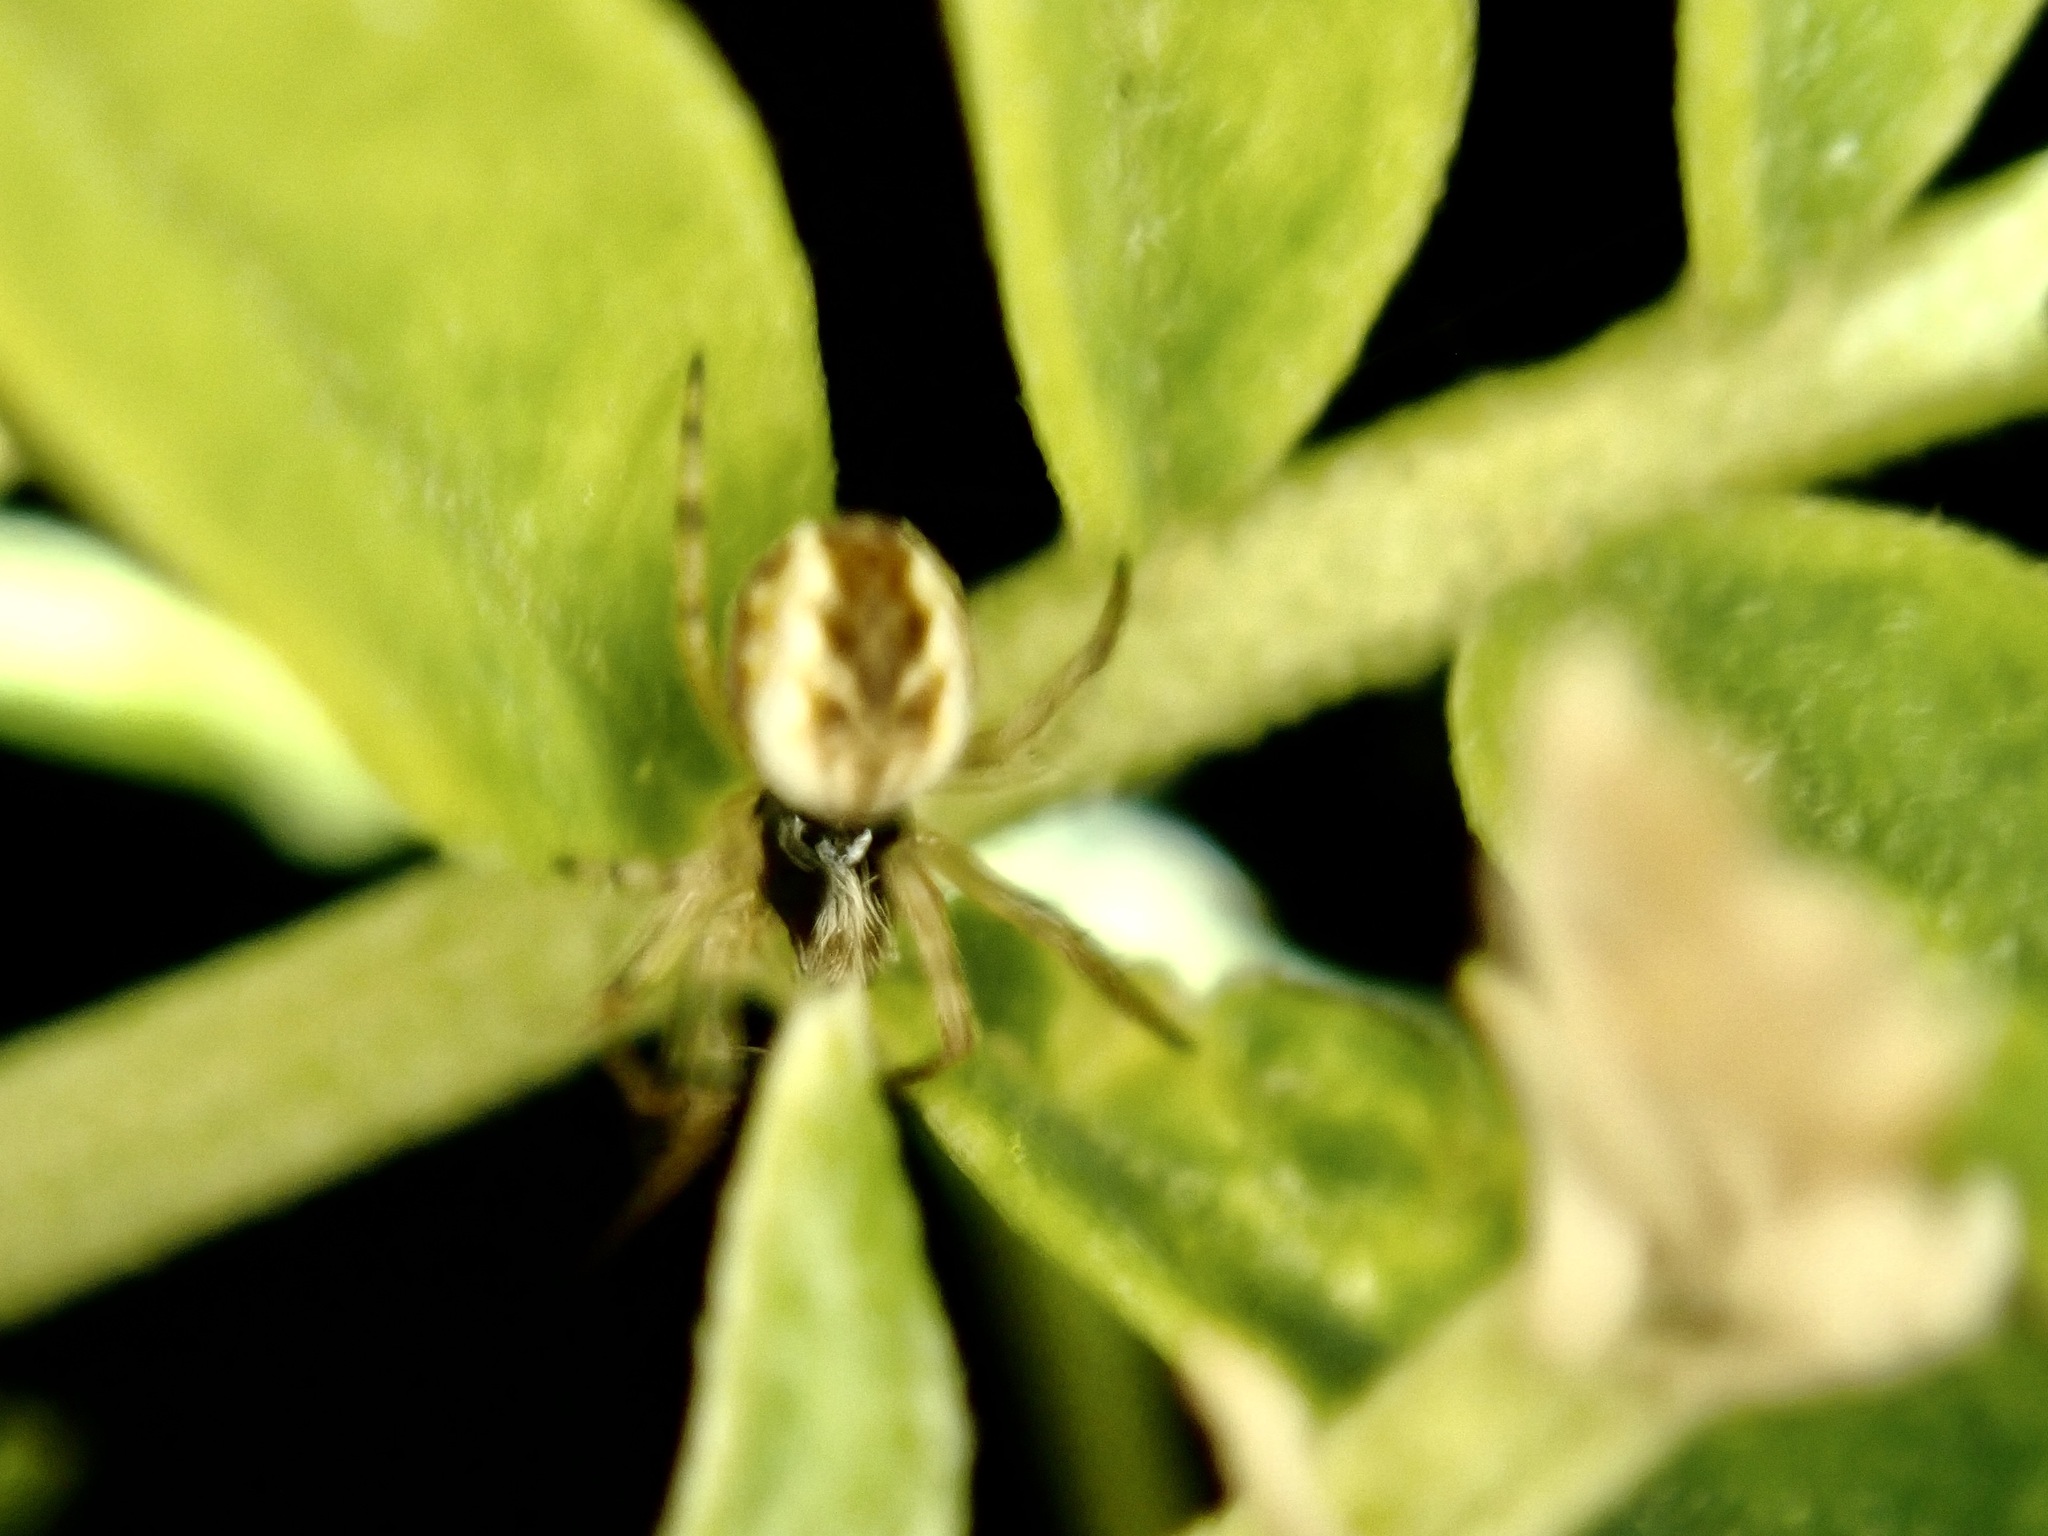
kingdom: Animalia
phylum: Arthropoda
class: Arachnida
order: Araneae
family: Araneidae
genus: Salsa
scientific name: Salsa fuliginata
